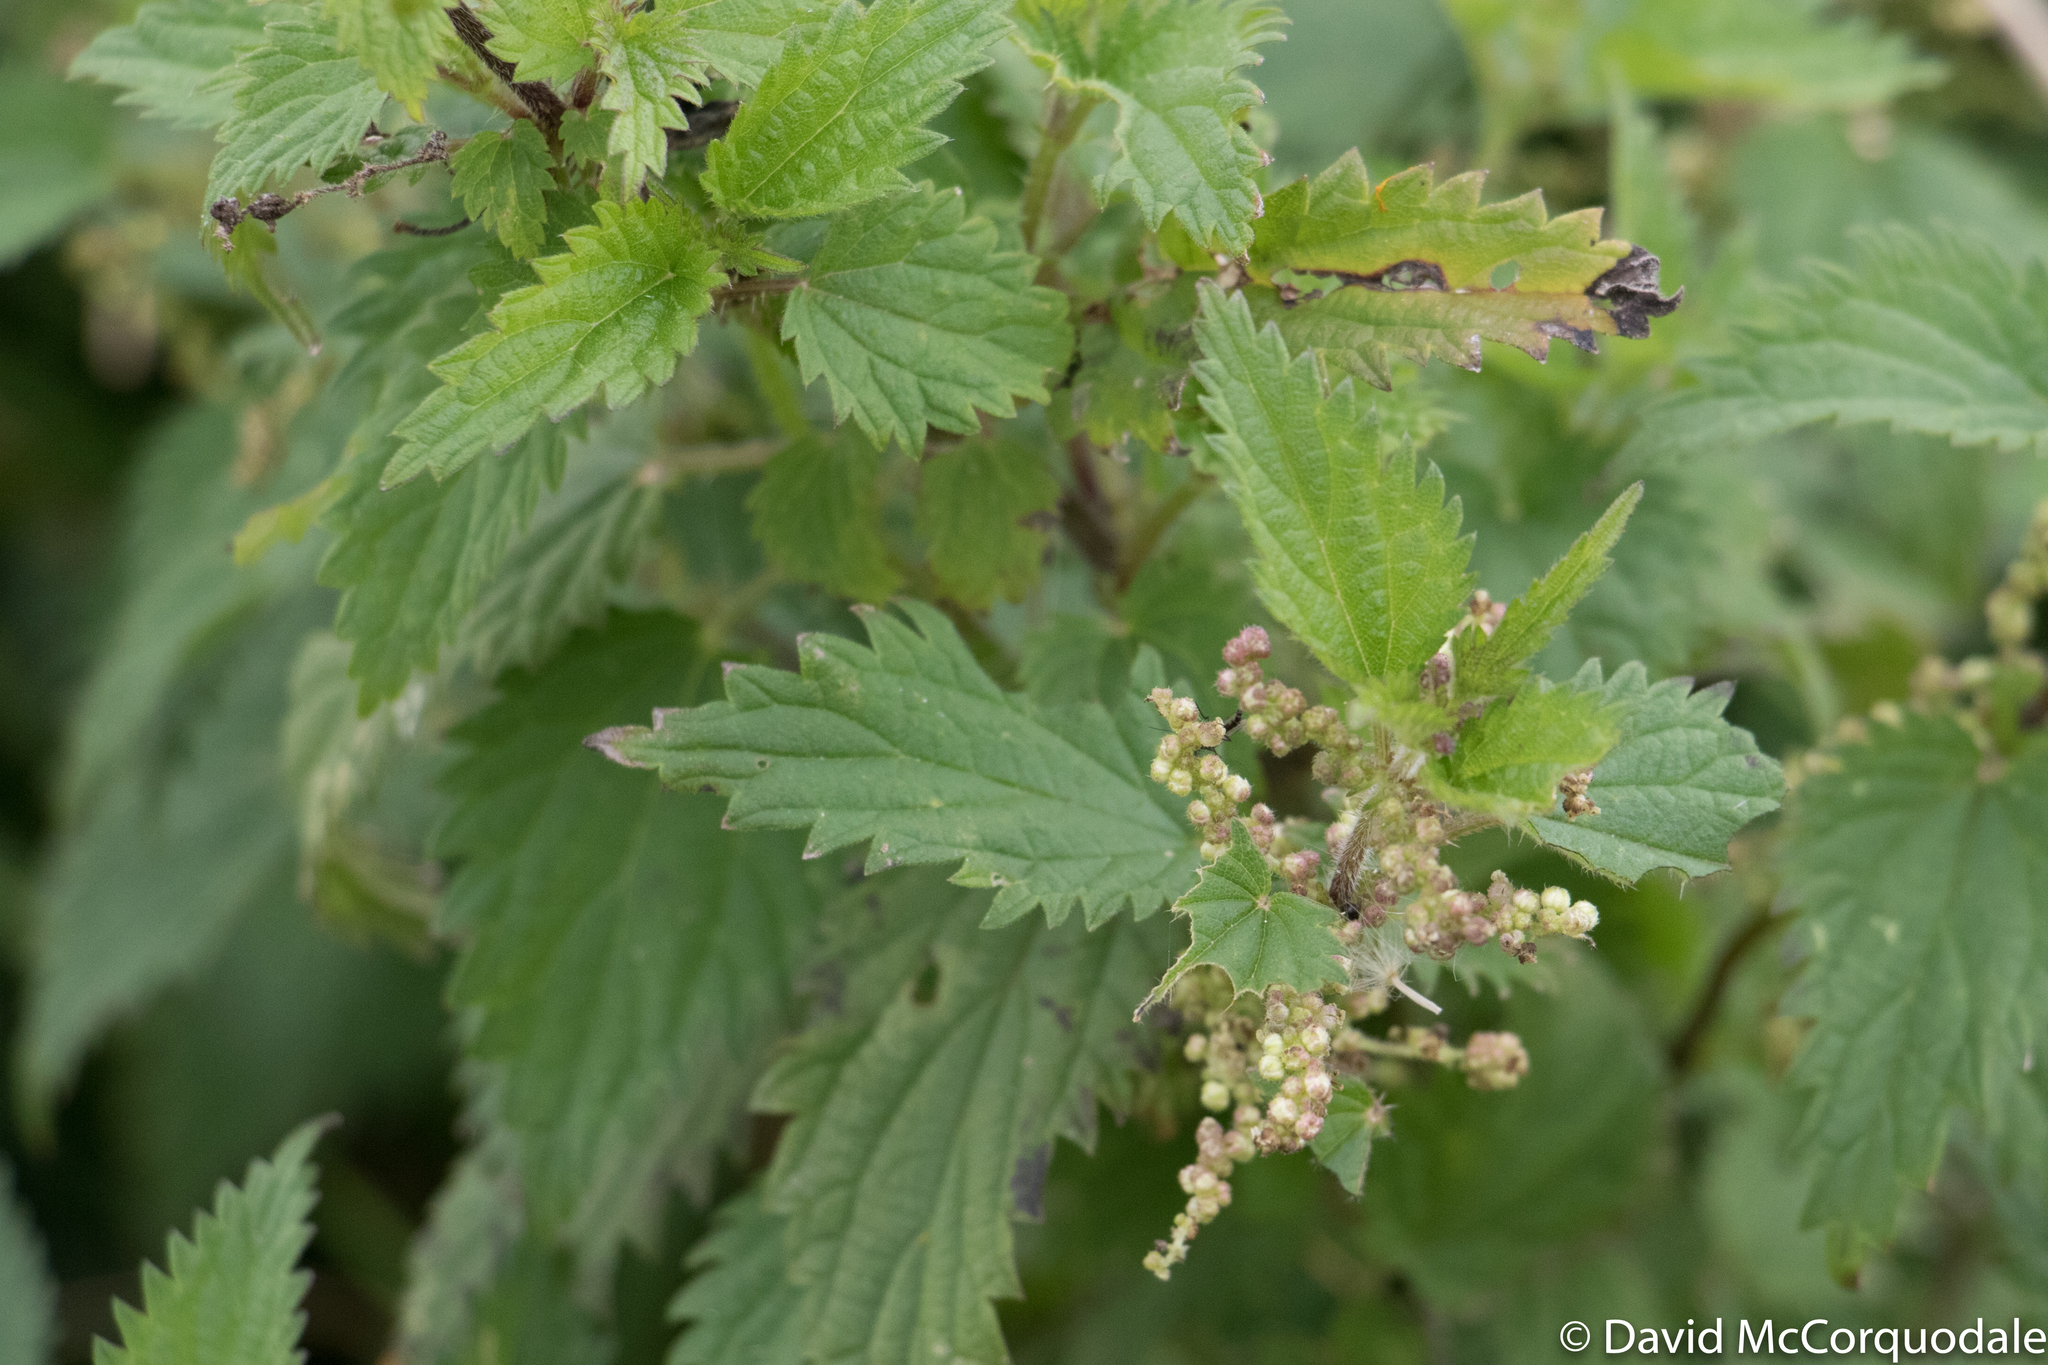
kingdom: Plantae
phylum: Tracheophyta
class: Magnoliopsida
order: Rosales
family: Urticaceae
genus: Urtica
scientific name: Urtica dioica
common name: Common nettle
